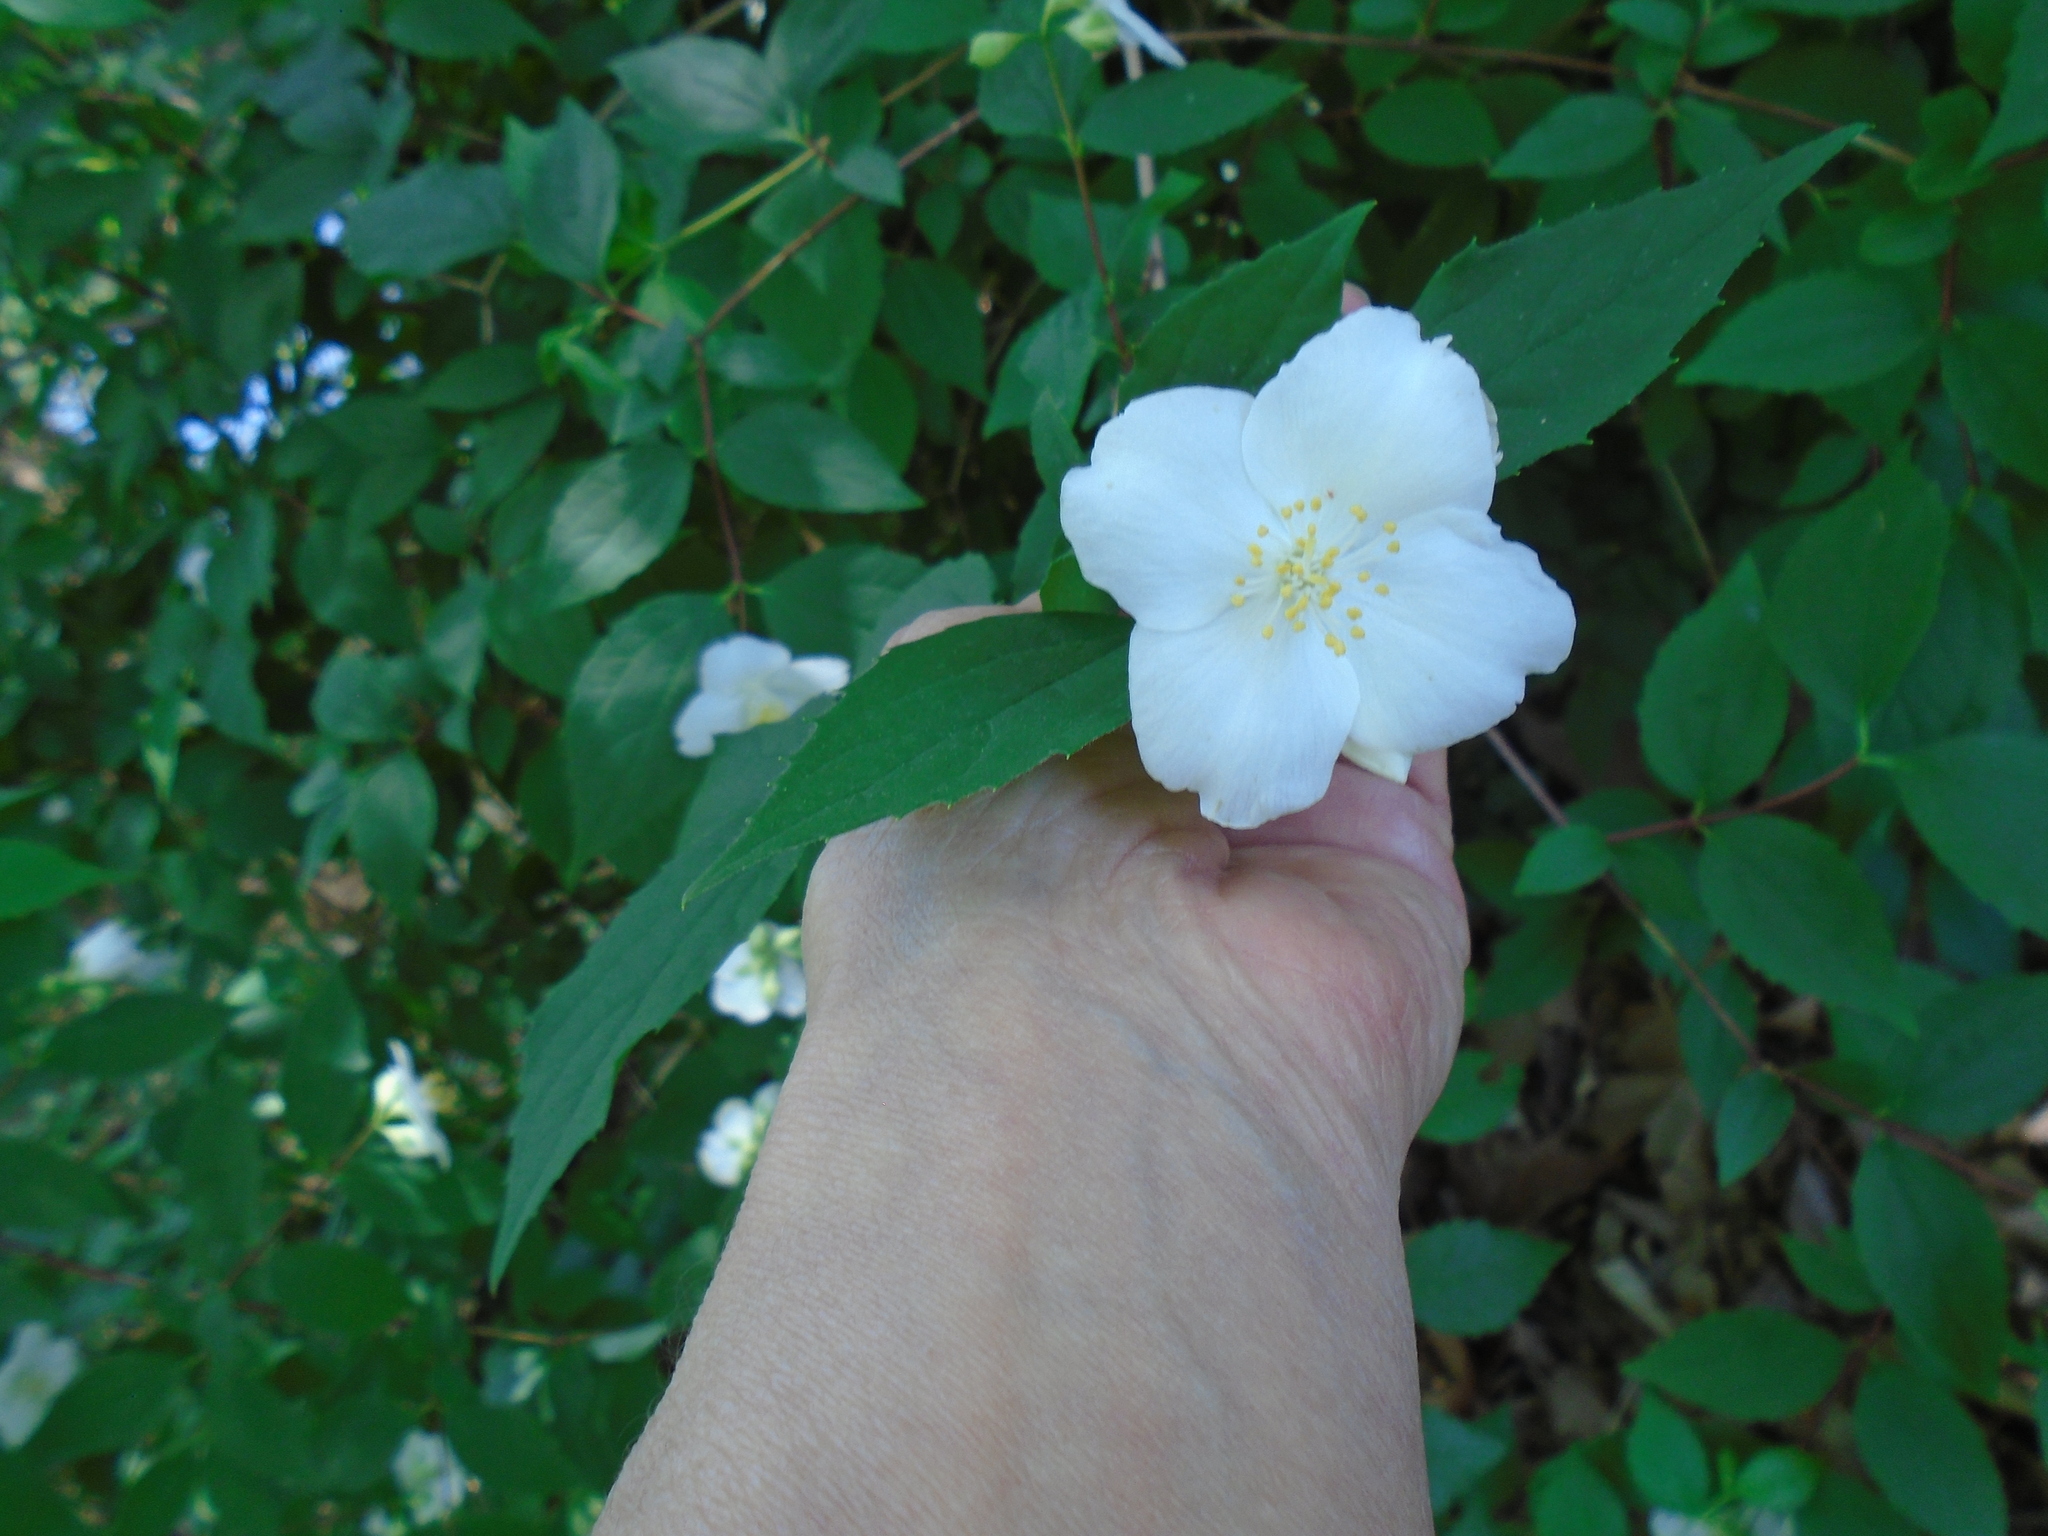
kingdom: Plantae
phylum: Tracheophyta
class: Magnoliopsida
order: Cornales
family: Hydrangeaceae
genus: Philadelphus
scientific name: Philadelphus coronarius
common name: Mock orange
